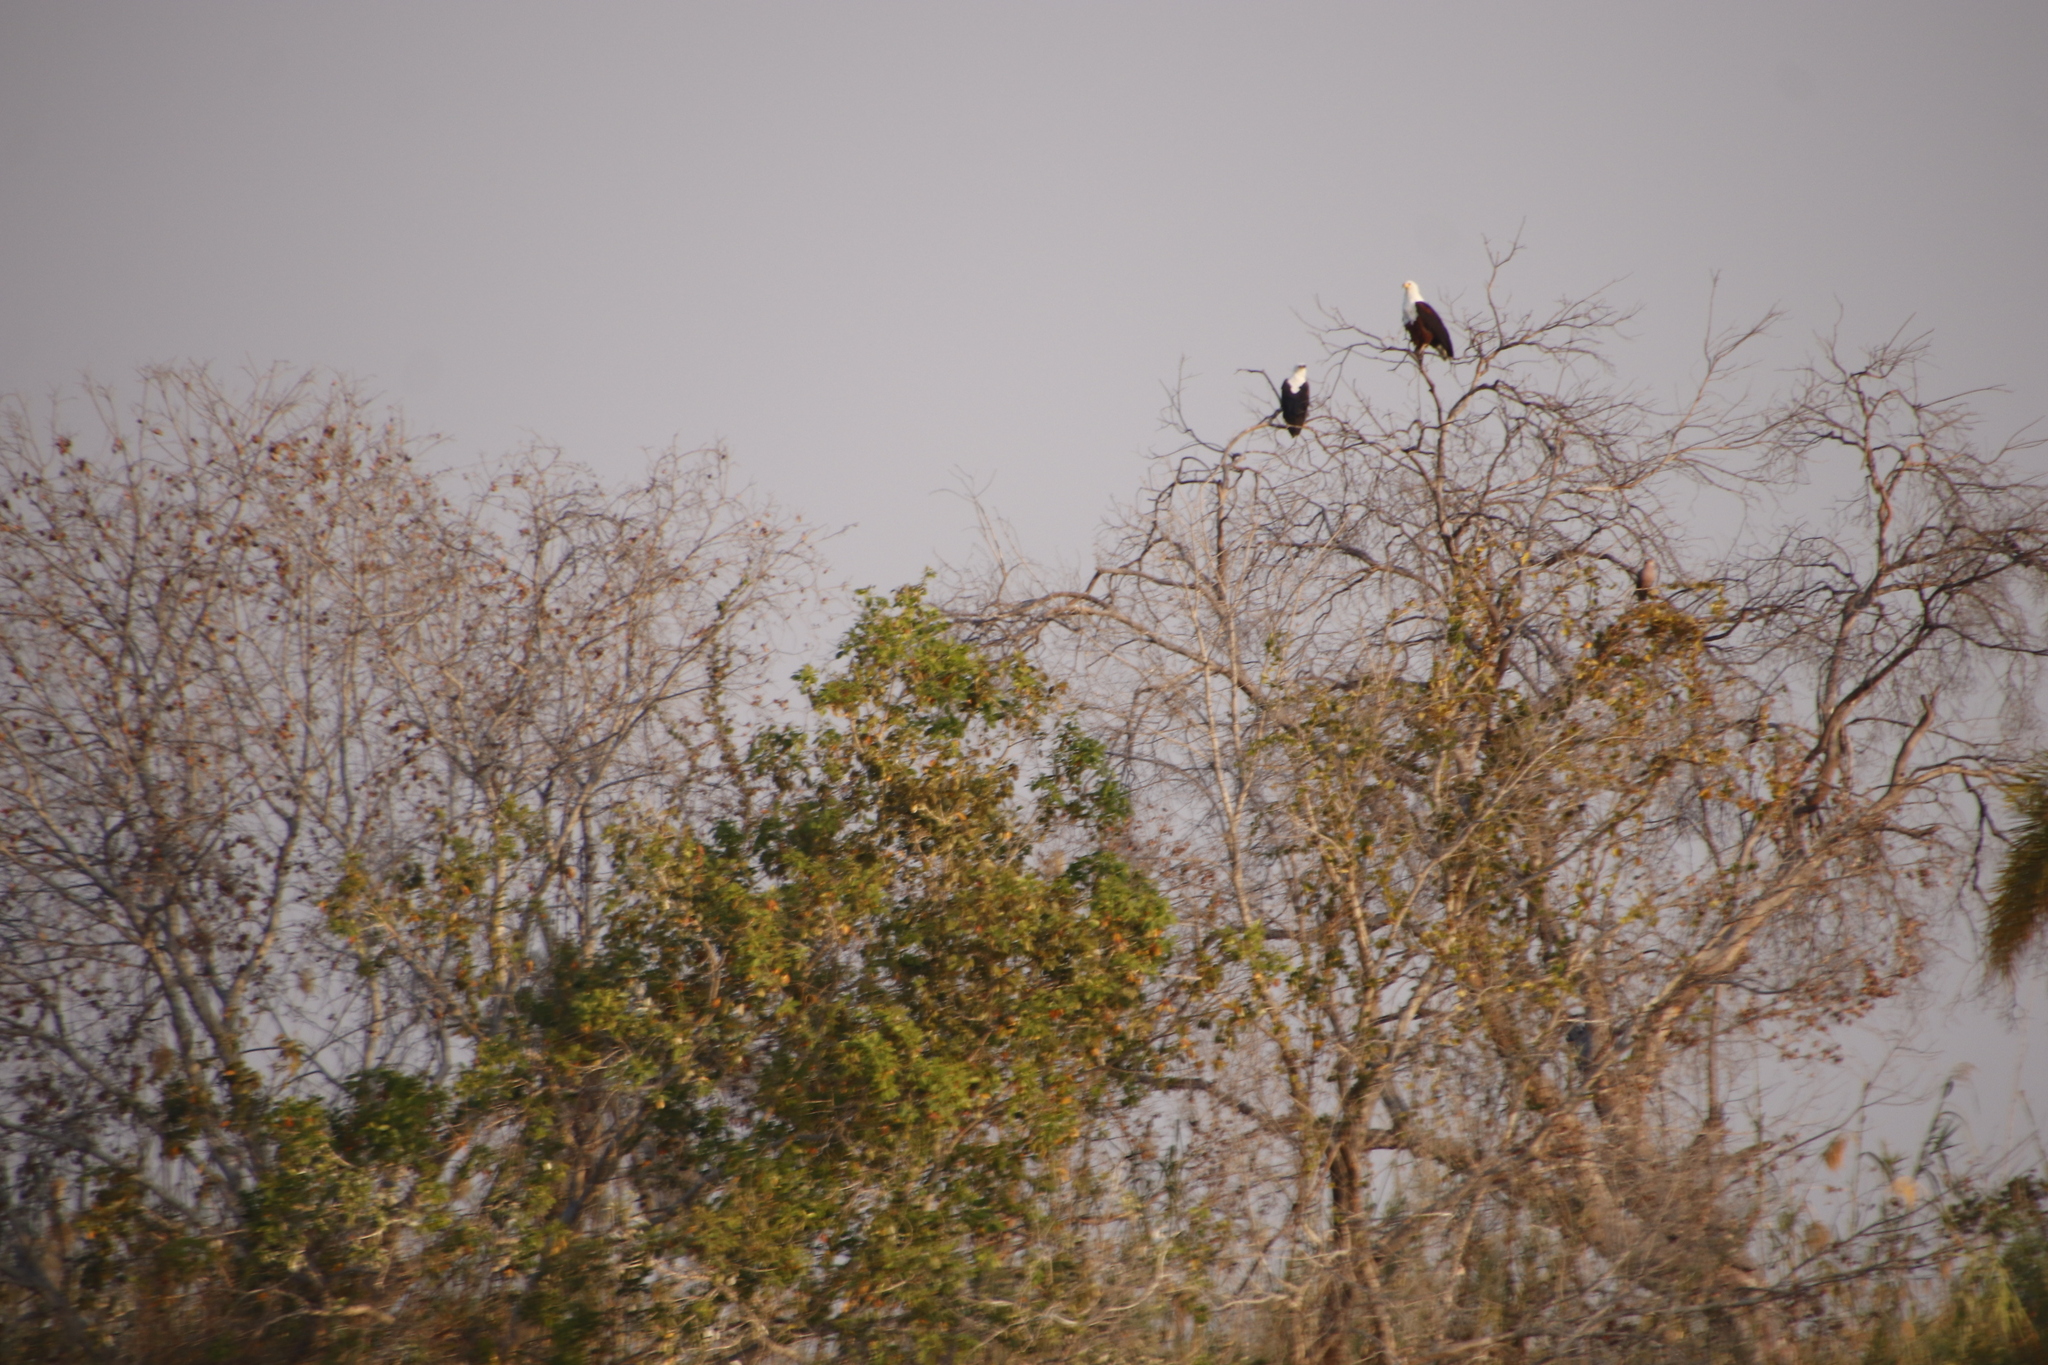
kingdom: Animalia
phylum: Chordata
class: Aves
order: Accipitriformes
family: Accipitridae
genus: Haliaeetus
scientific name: Haliaeetus vocifer
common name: African fish eagle
